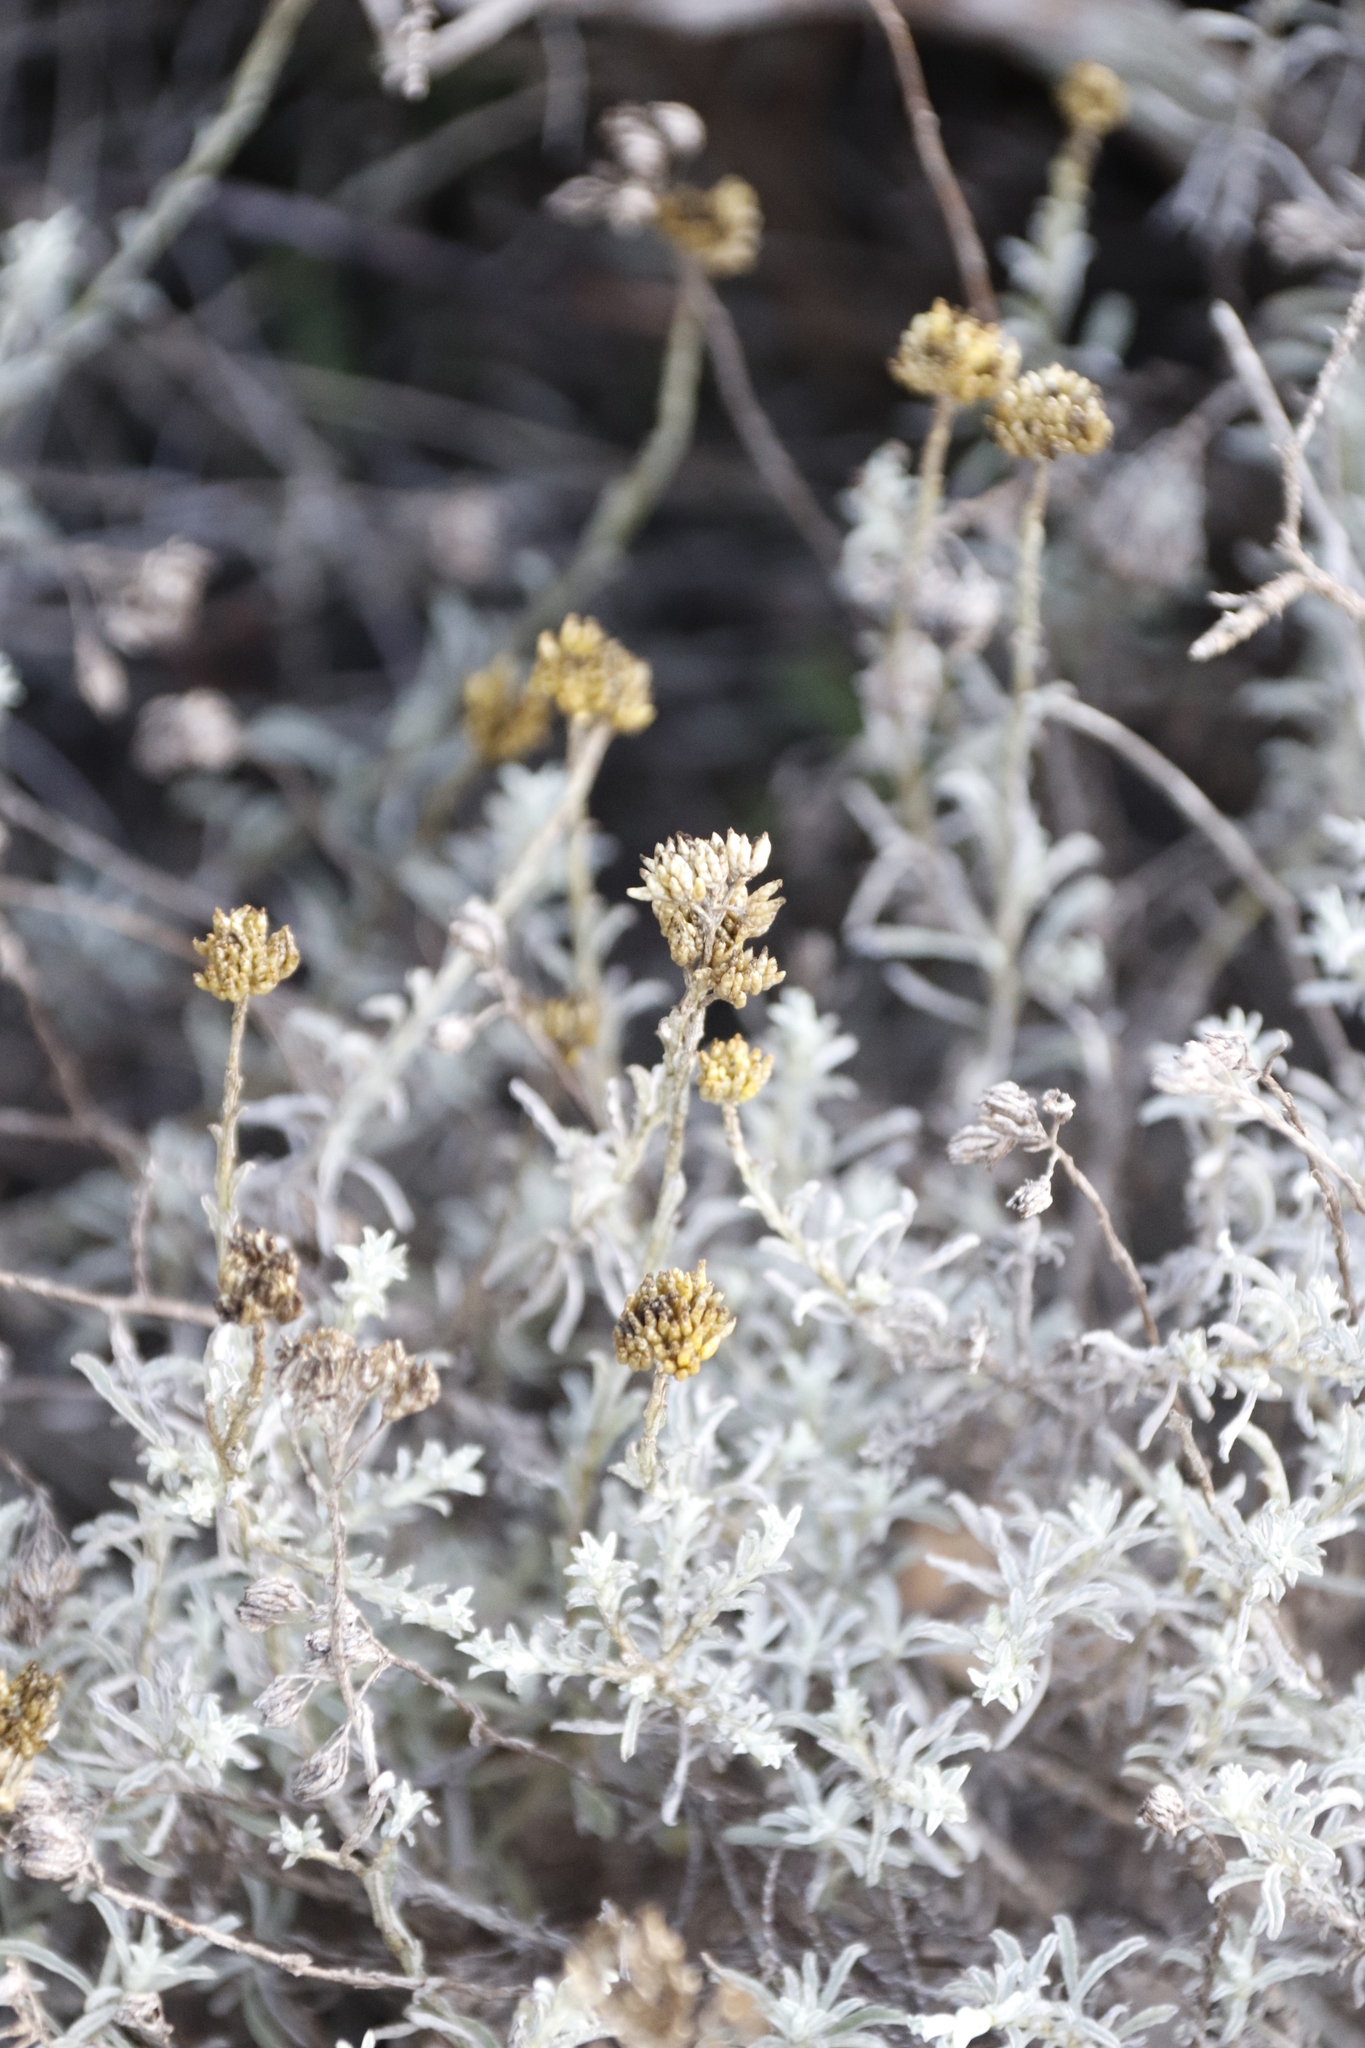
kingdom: Plantae
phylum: Tracheophyta
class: Magnoliopsida
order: Asterales
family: Asteraceae
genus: Helichrysum
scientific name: Helichrysum rutilans
